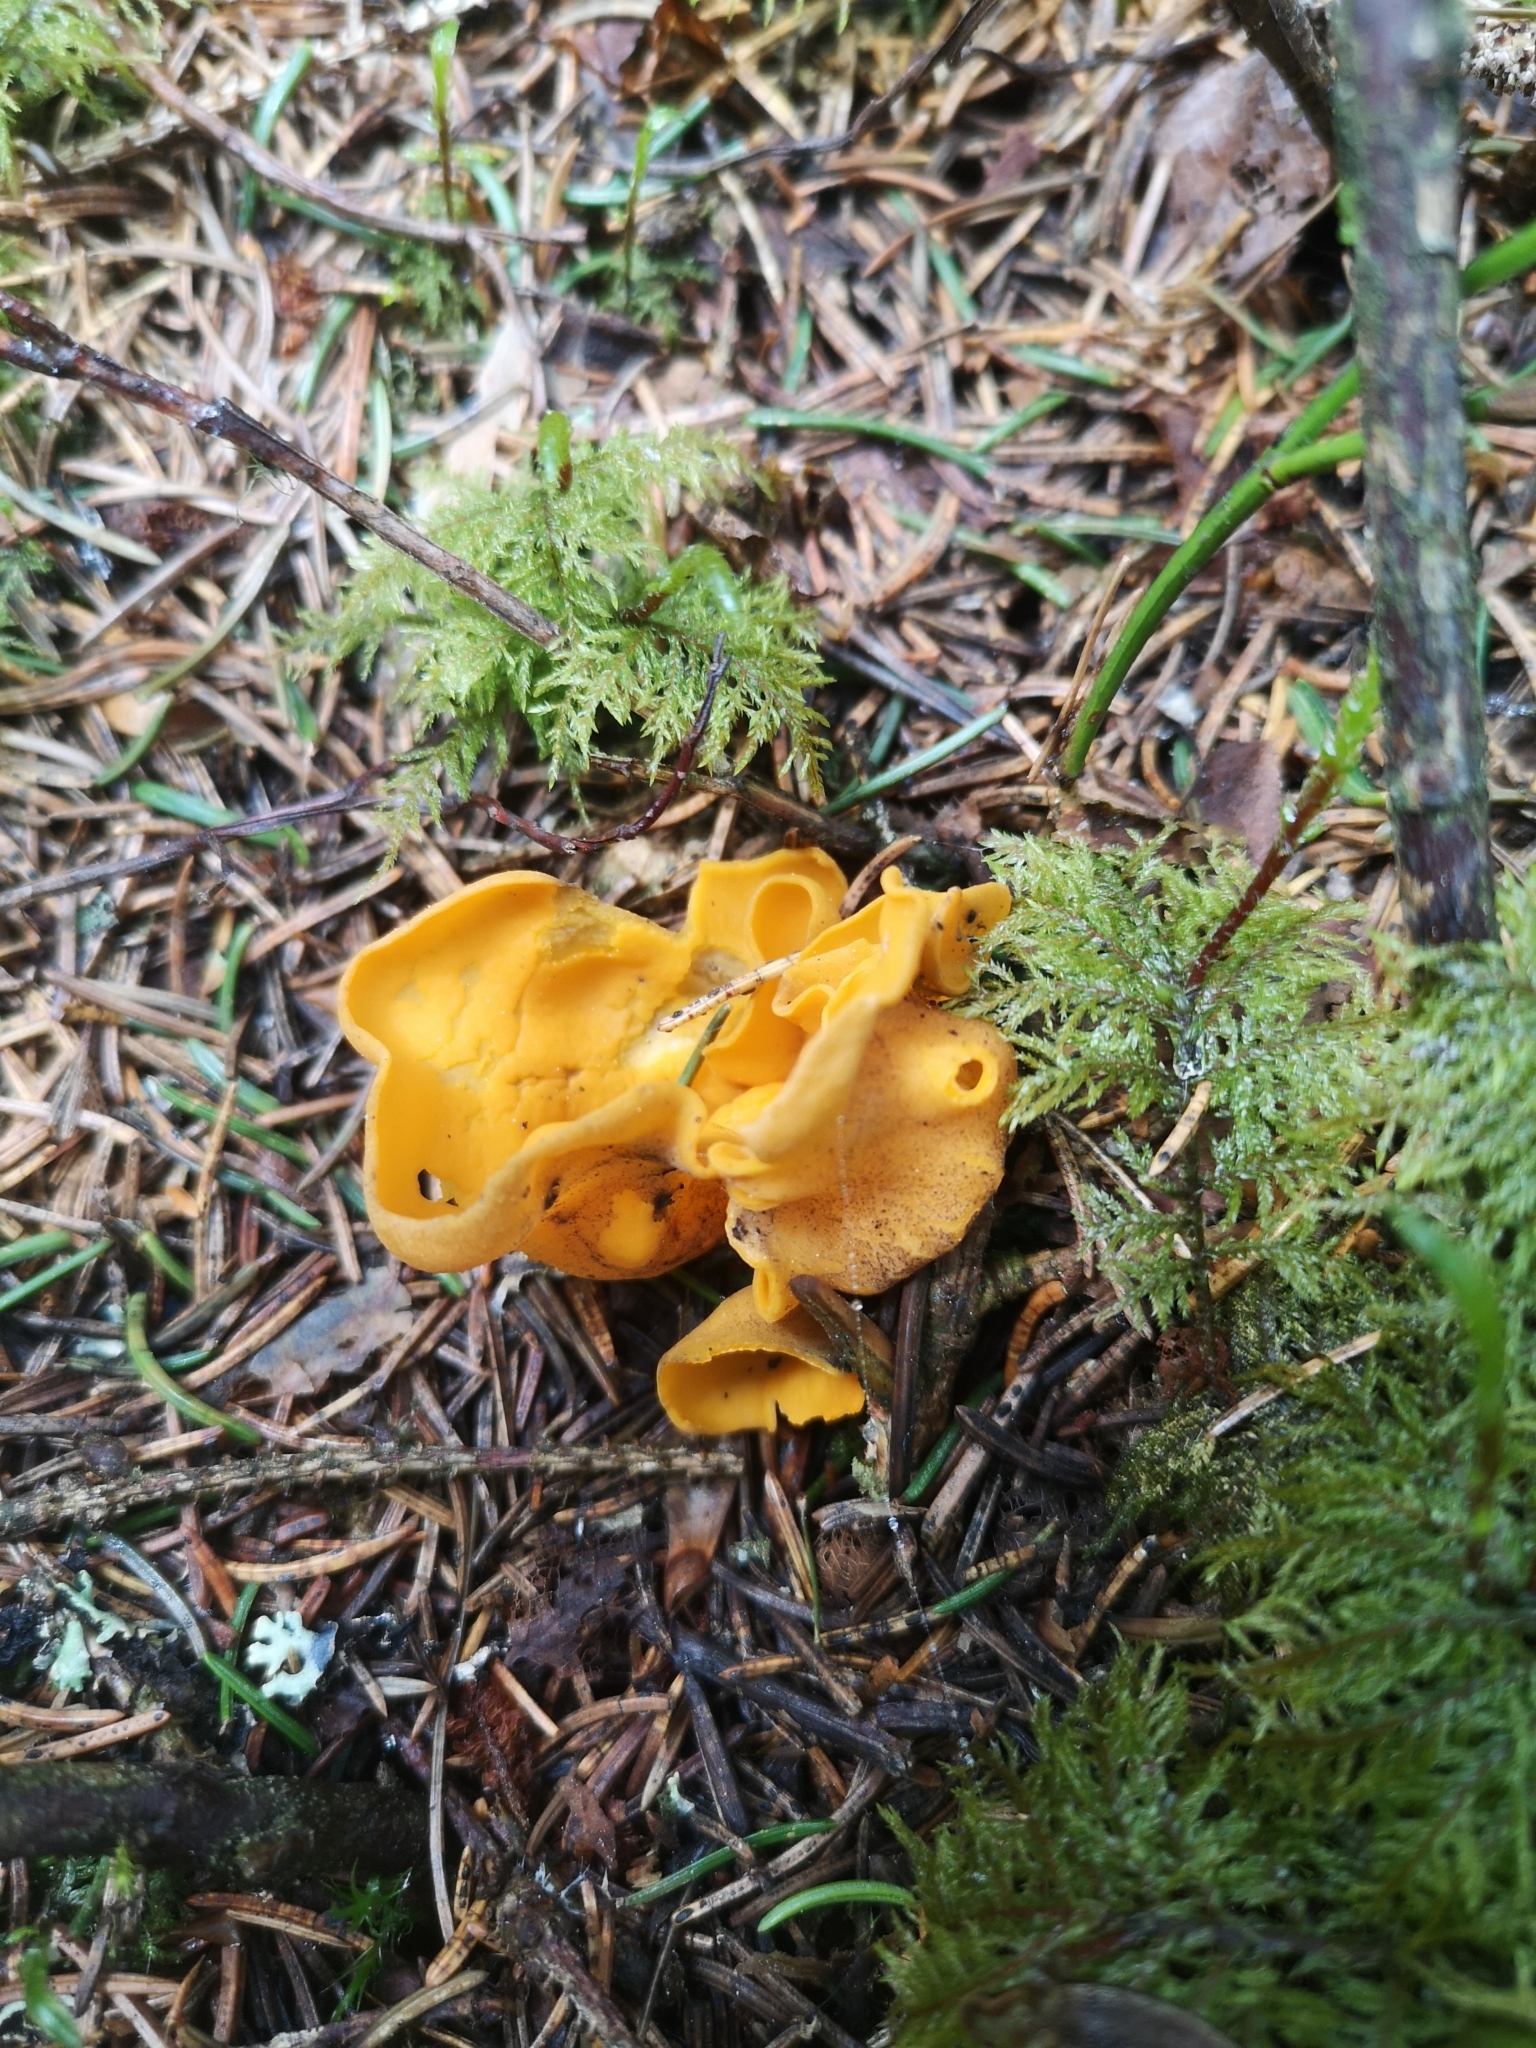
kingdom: Fungi
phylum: Ascomycota
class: Pezizomycetes
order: Pezizales
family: Caloscyphaceae
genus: Caloscypha
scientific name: Caloscypha fulgens
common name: Golden cup
